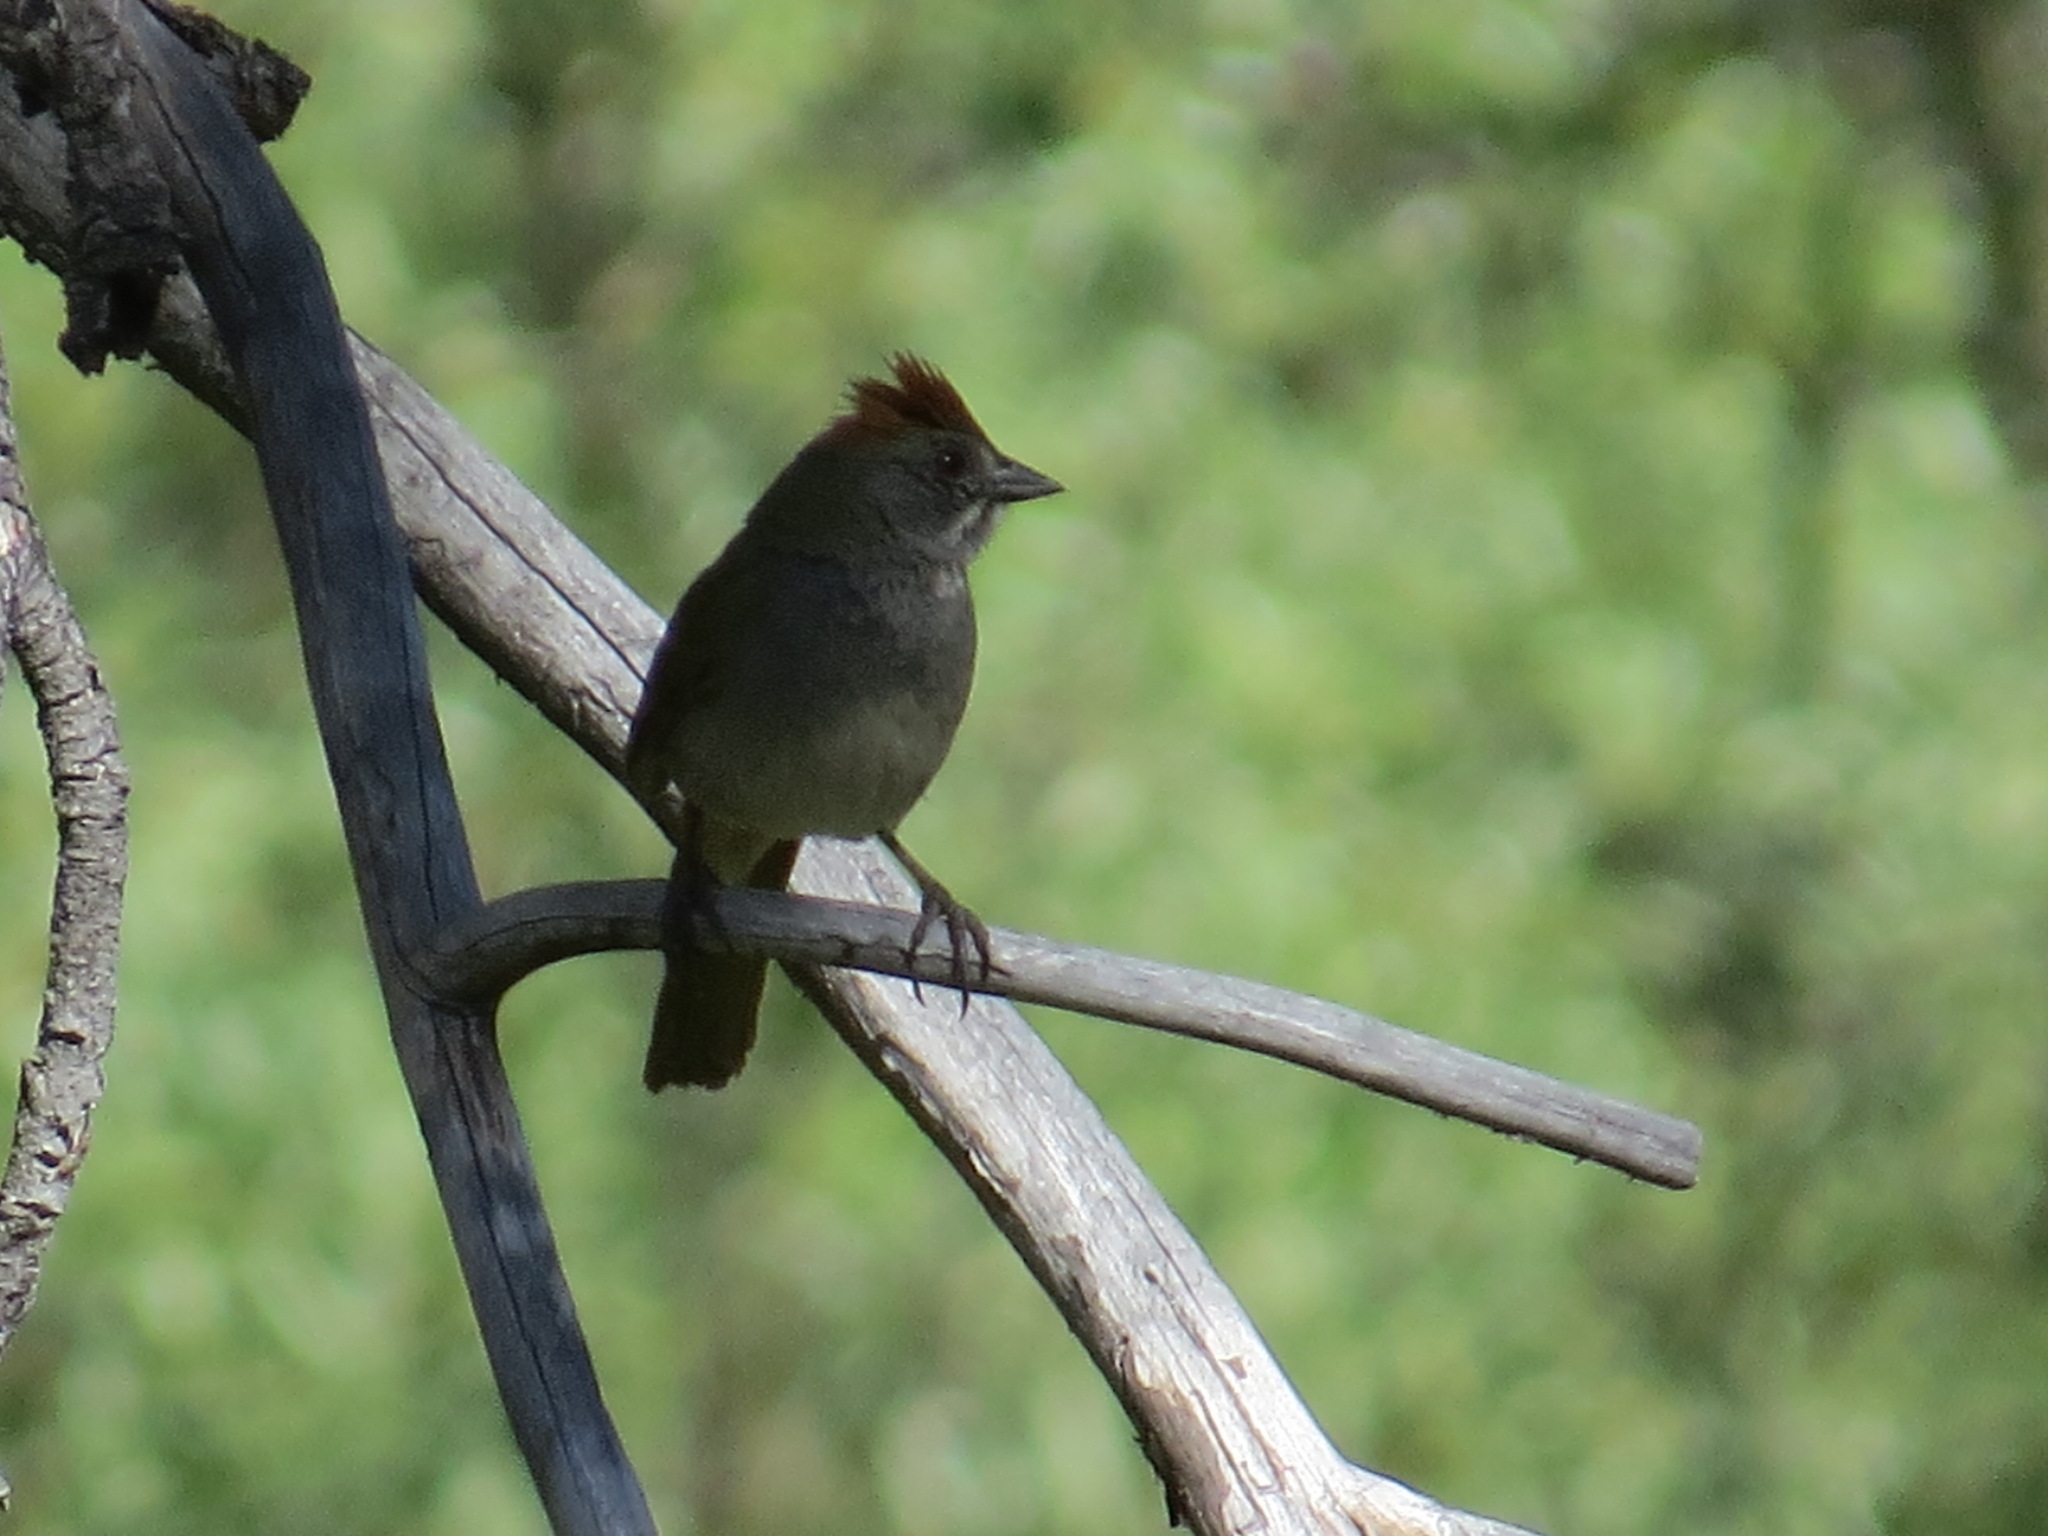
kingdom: Animalia
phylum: Chordata
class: Aves
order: Passeriformes
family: Passerellidae
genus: Pipilo
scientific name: Pipilo chlorurus
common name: Green-tailed towhee
